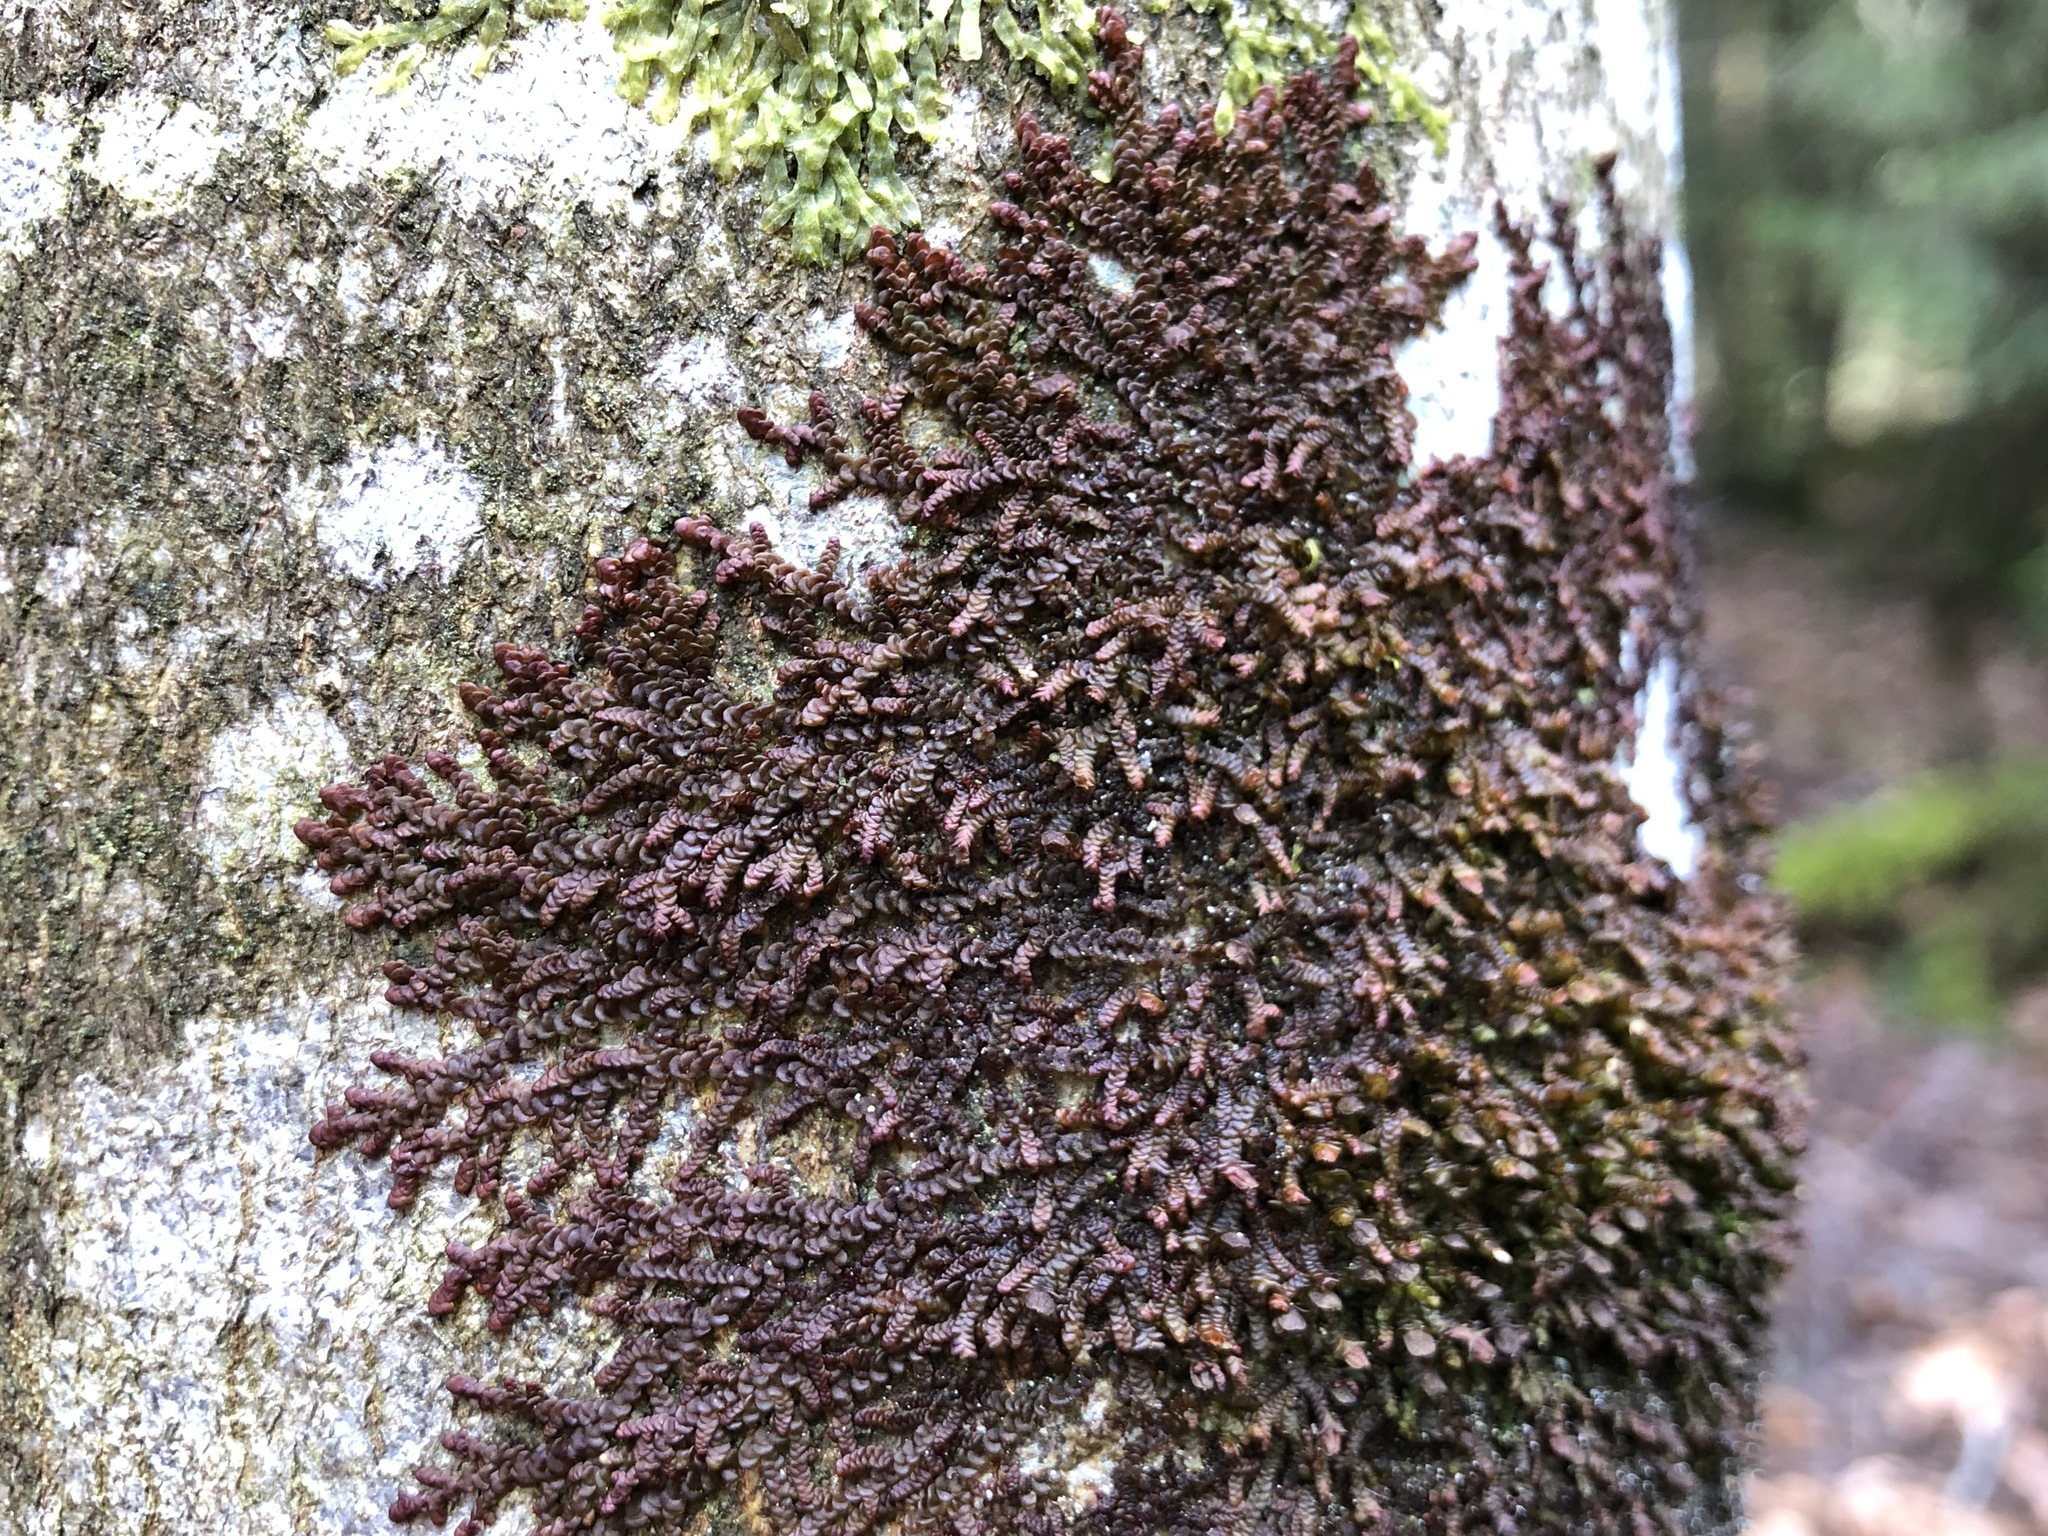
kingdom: Plantae
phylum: Marchantiophyta
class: Jungermanniopsida
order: Porellales
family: Frullaniaceae
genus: Frullania
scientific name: Frullania dilatata
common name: Dilated scalewort
